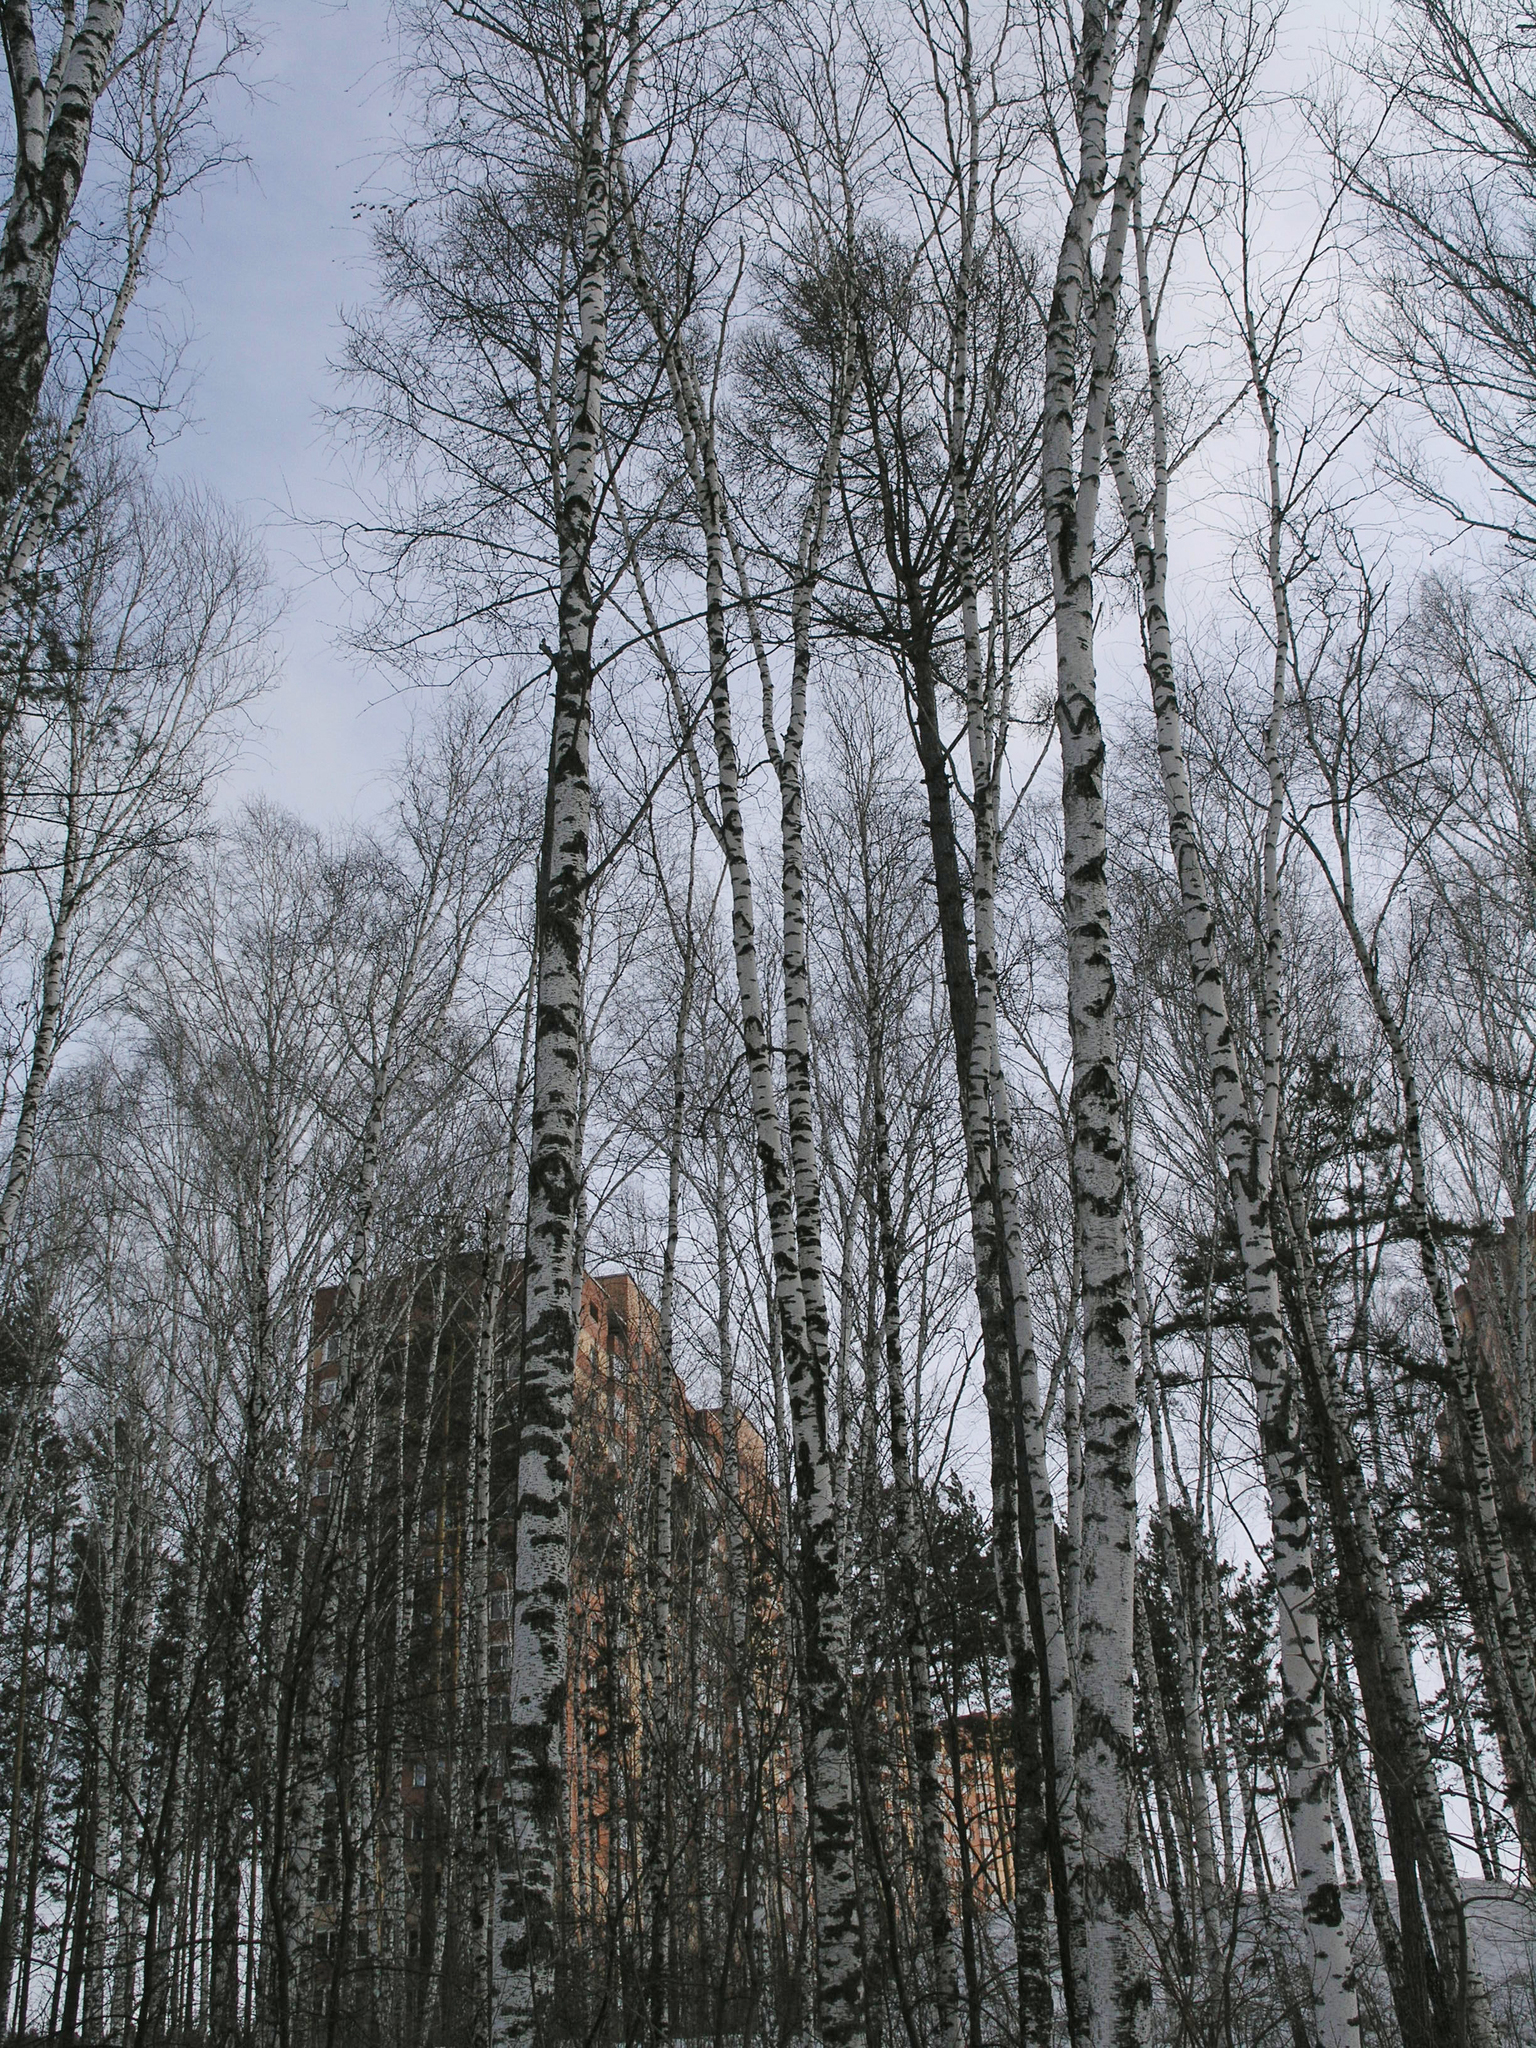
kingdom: Plantae
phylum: Tracheophyta
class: Pinopsida
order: Pinales
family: Pinaceae
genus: Larix
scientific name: Larix sibirica
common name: Siberian larch
